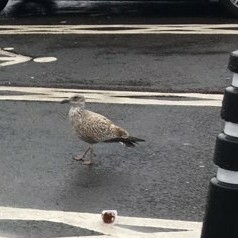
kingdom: Animalia
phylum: Chordata
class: Aves
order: Charadriiformes
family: Laridae
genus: Larus
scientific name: Larus argentatus
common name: Herring gull
